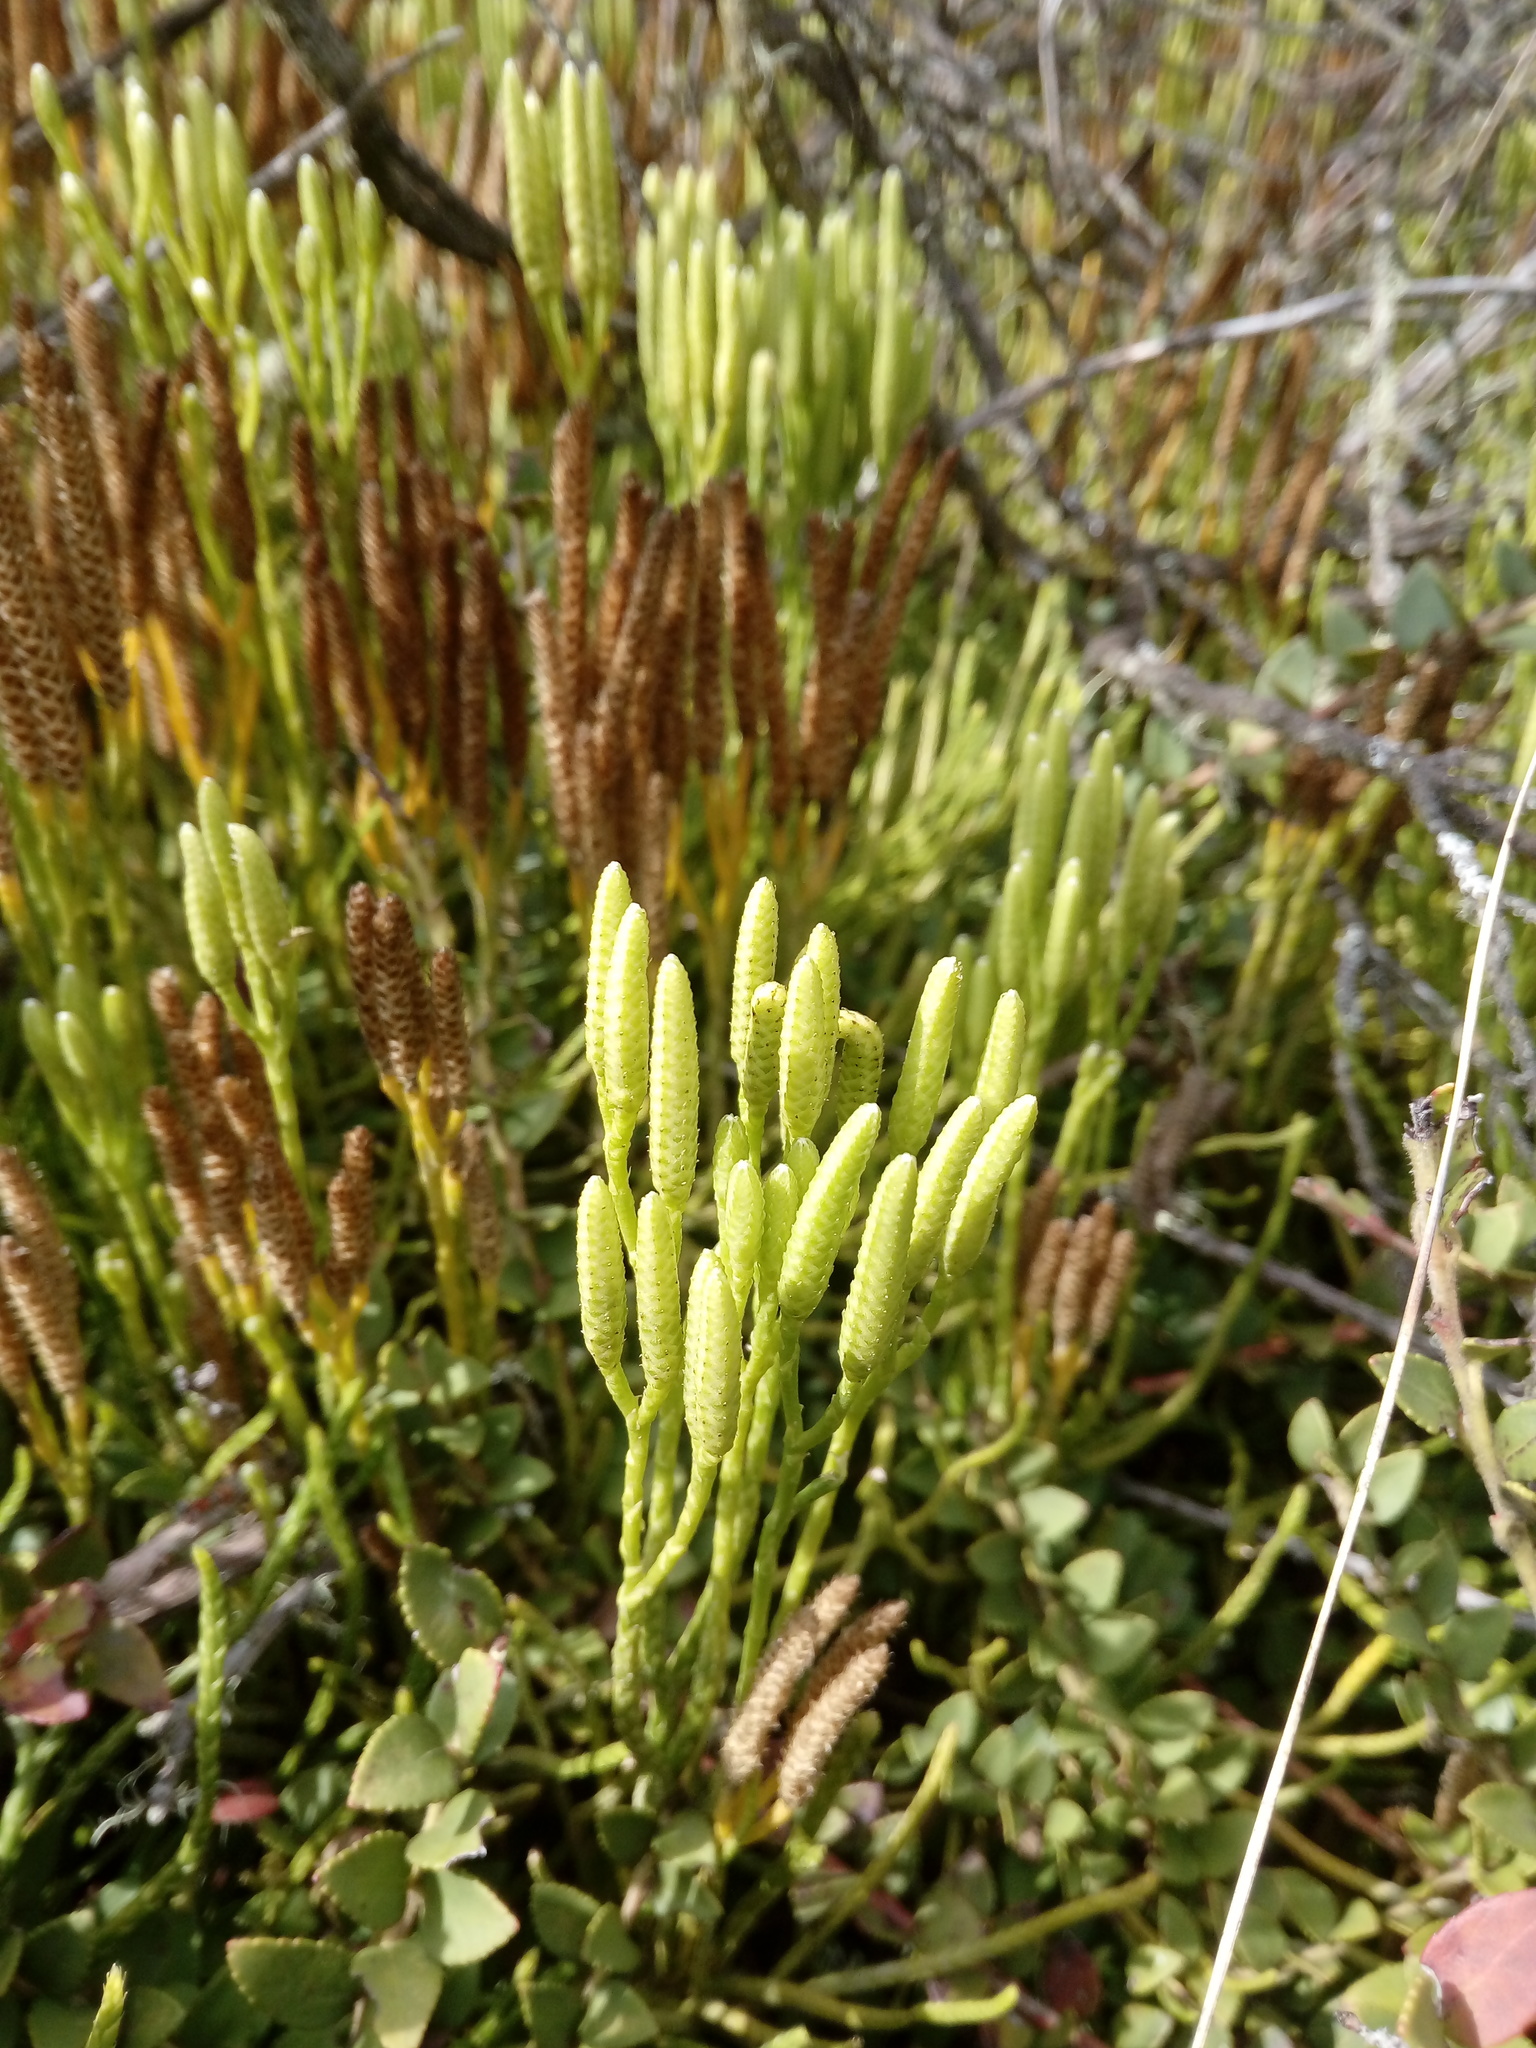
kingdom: Plantae
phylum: Tracheophyta
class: Lycopodiopsida
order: Lycopodiales
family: Lycopodiaceae
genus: Diphasiastrum
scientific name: Diphasiastrum thyoides
